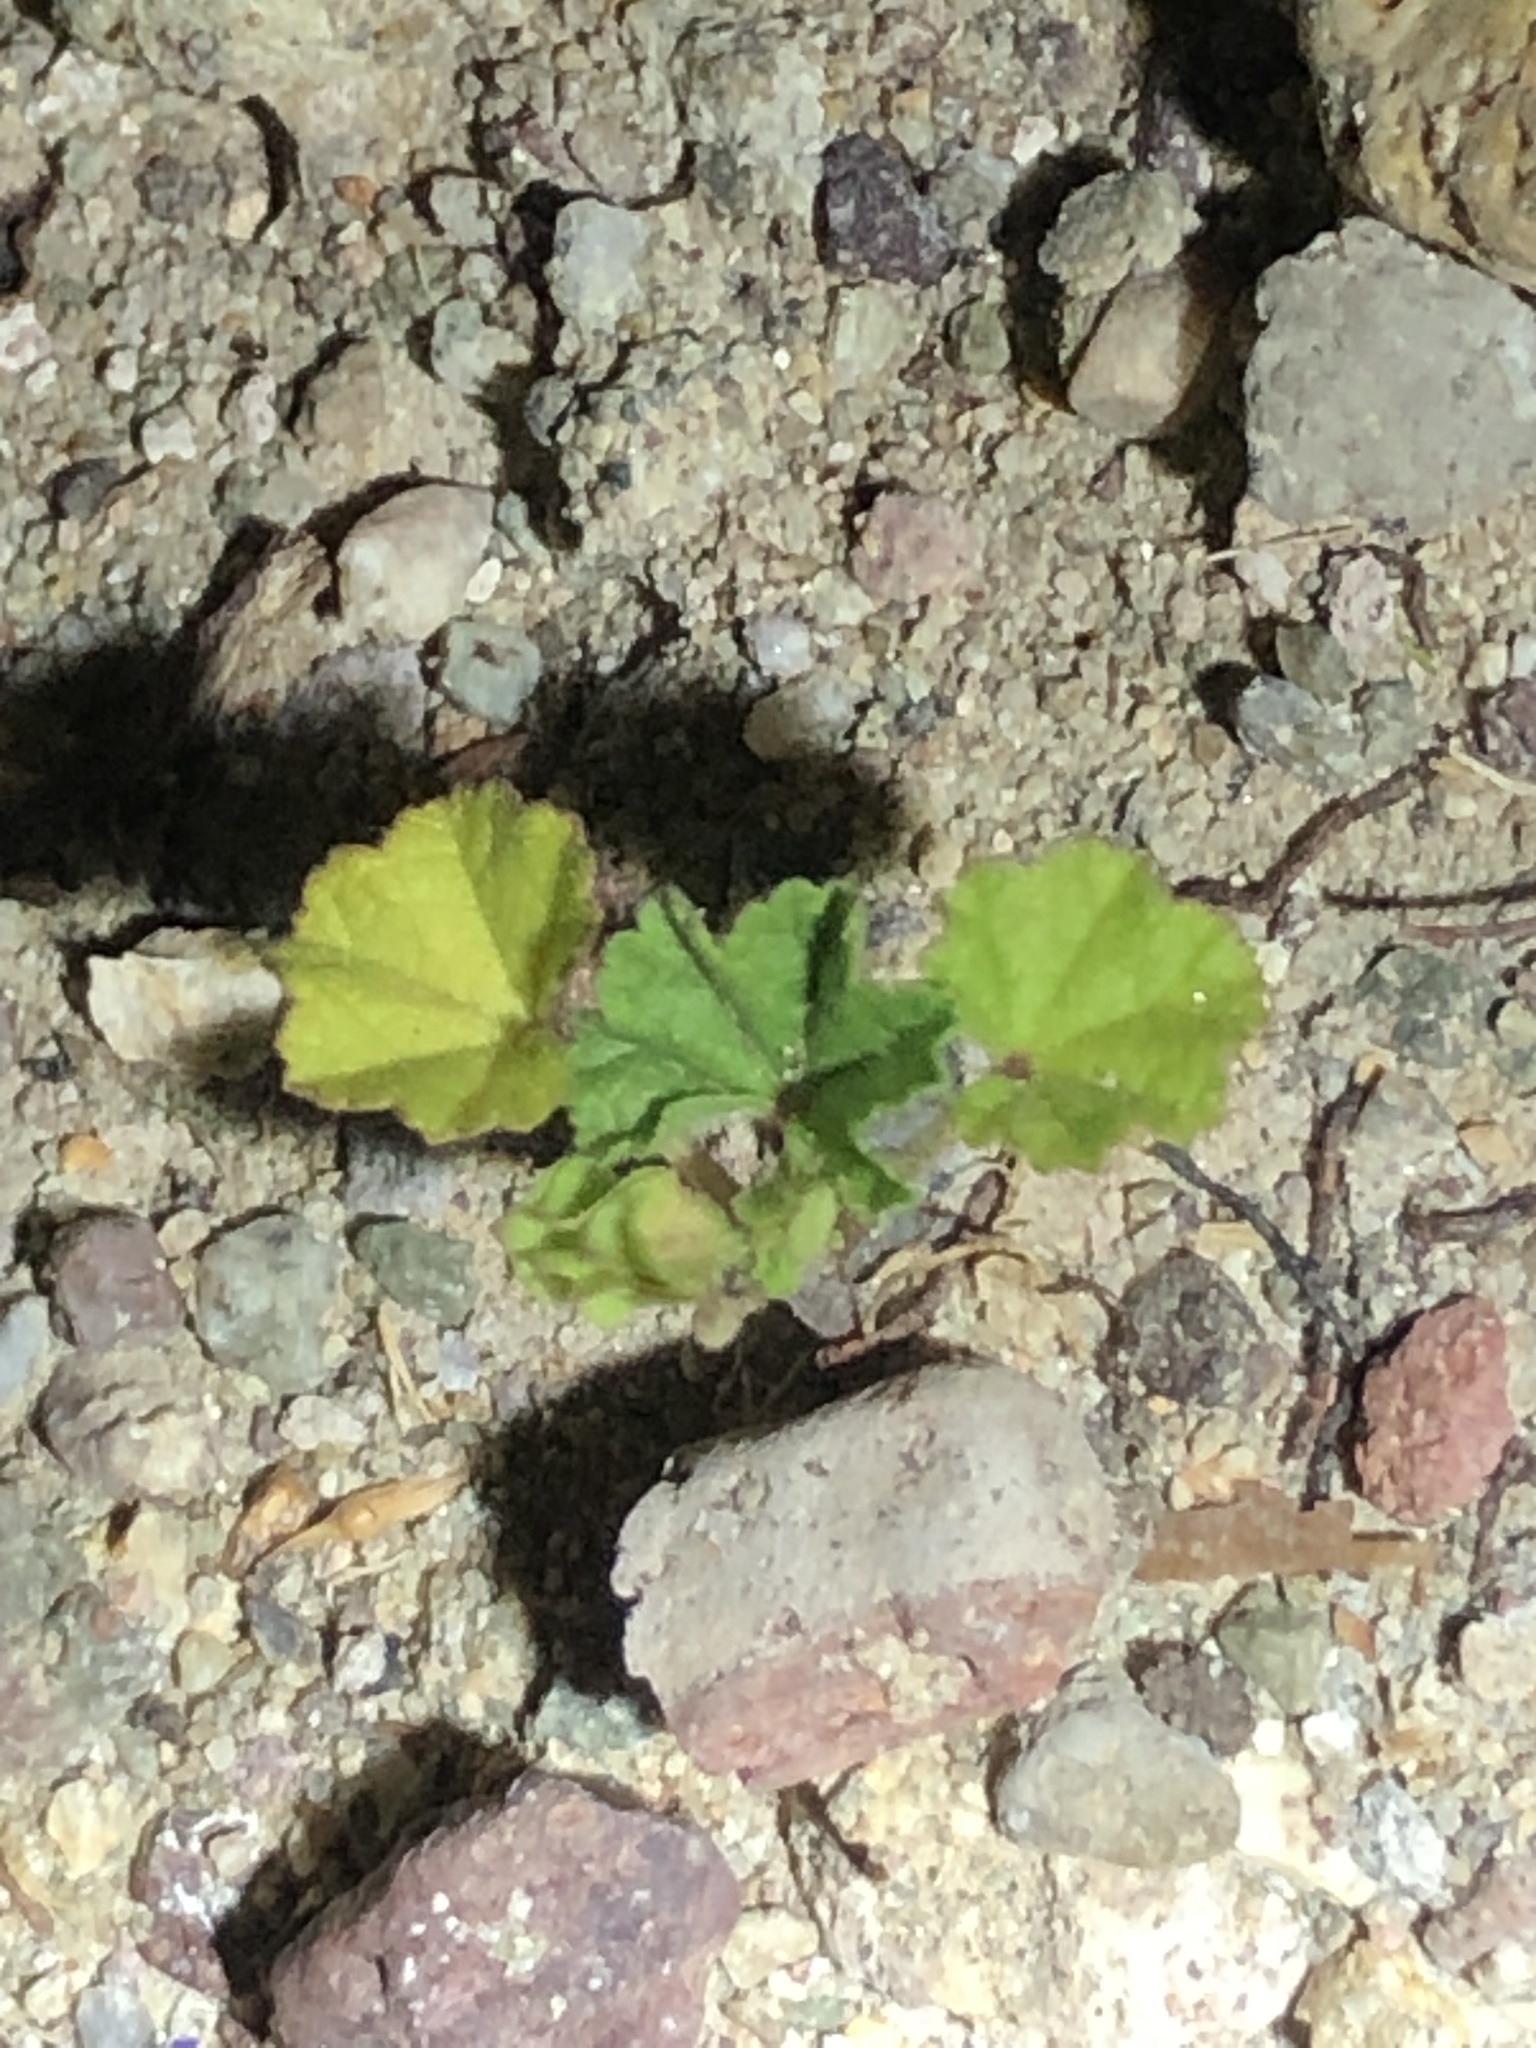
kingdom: Plantae
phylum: Tracheophyta
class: Magnoliopsida
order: Malvales
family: Malvaceae
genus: Malva
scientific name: Malva parviflora
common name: Least mallow
